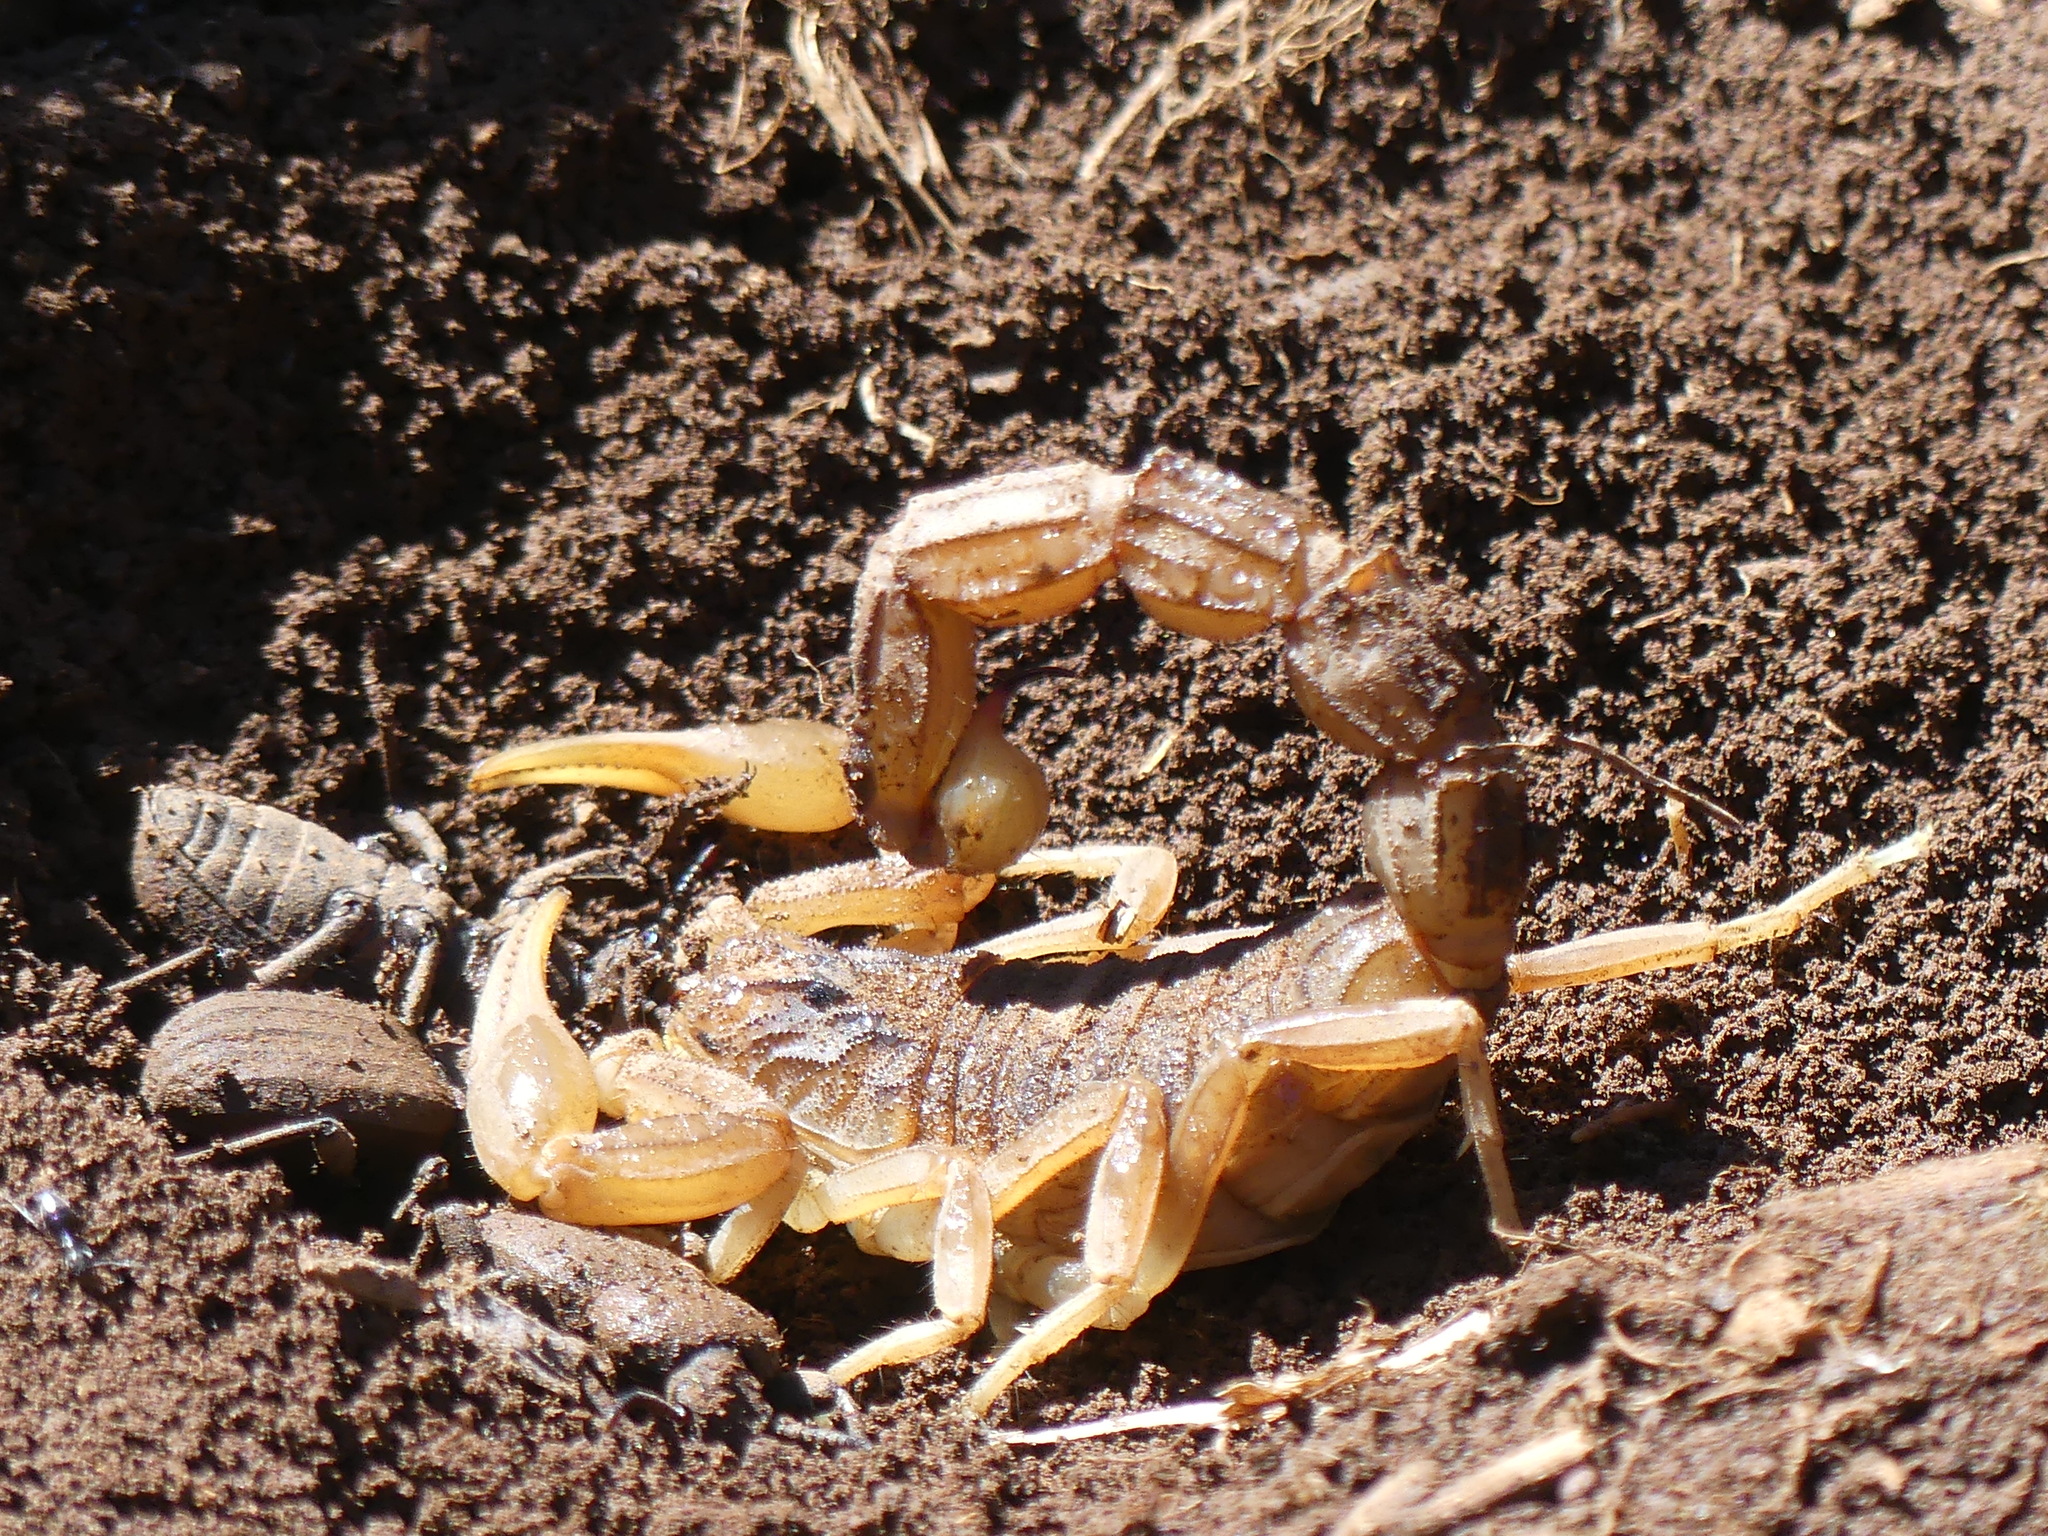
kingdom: Animalia
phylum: Arthropoda
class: Arachnida
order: Scorpiones
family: Buthidae
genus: Buthus
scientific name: Buthus albengai
